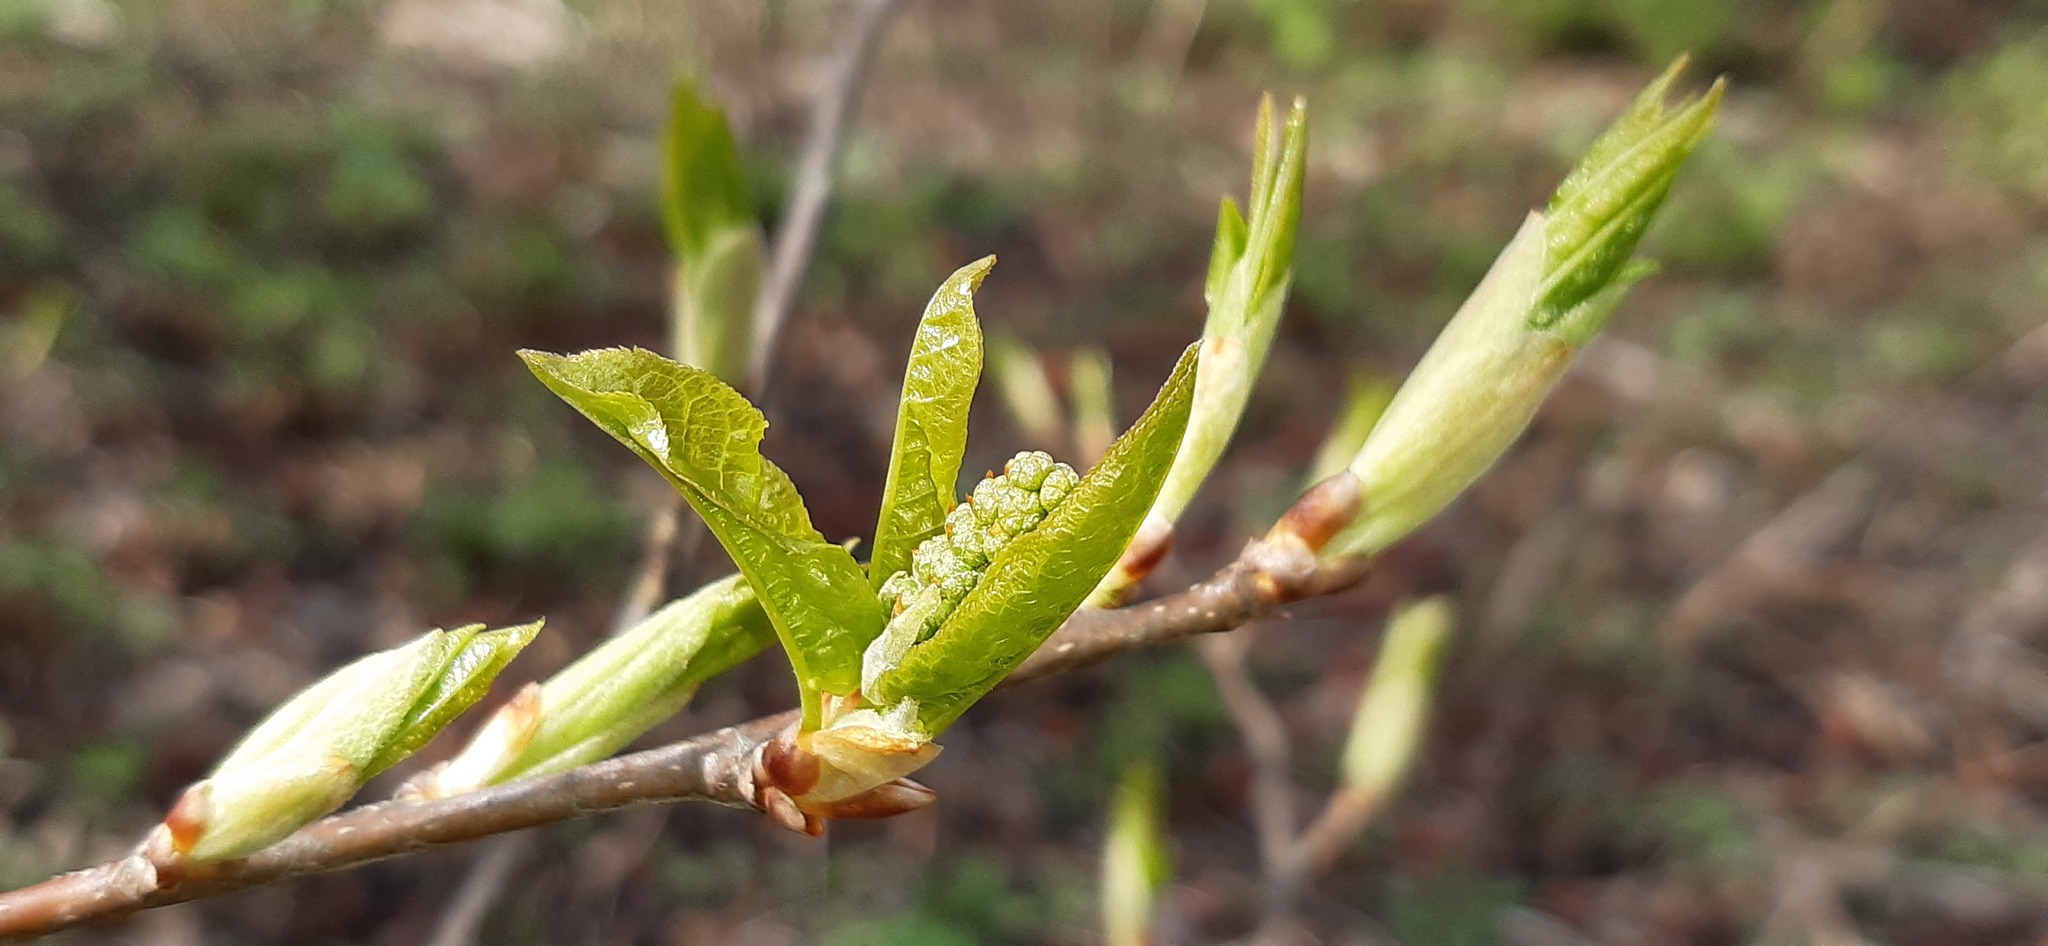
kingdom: Plantae
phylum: Tracheophyta
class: Magnoliopsida
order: Rosales
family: Rosaceae
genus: Prunus
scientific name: Prunus padus
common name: Bird cherry
